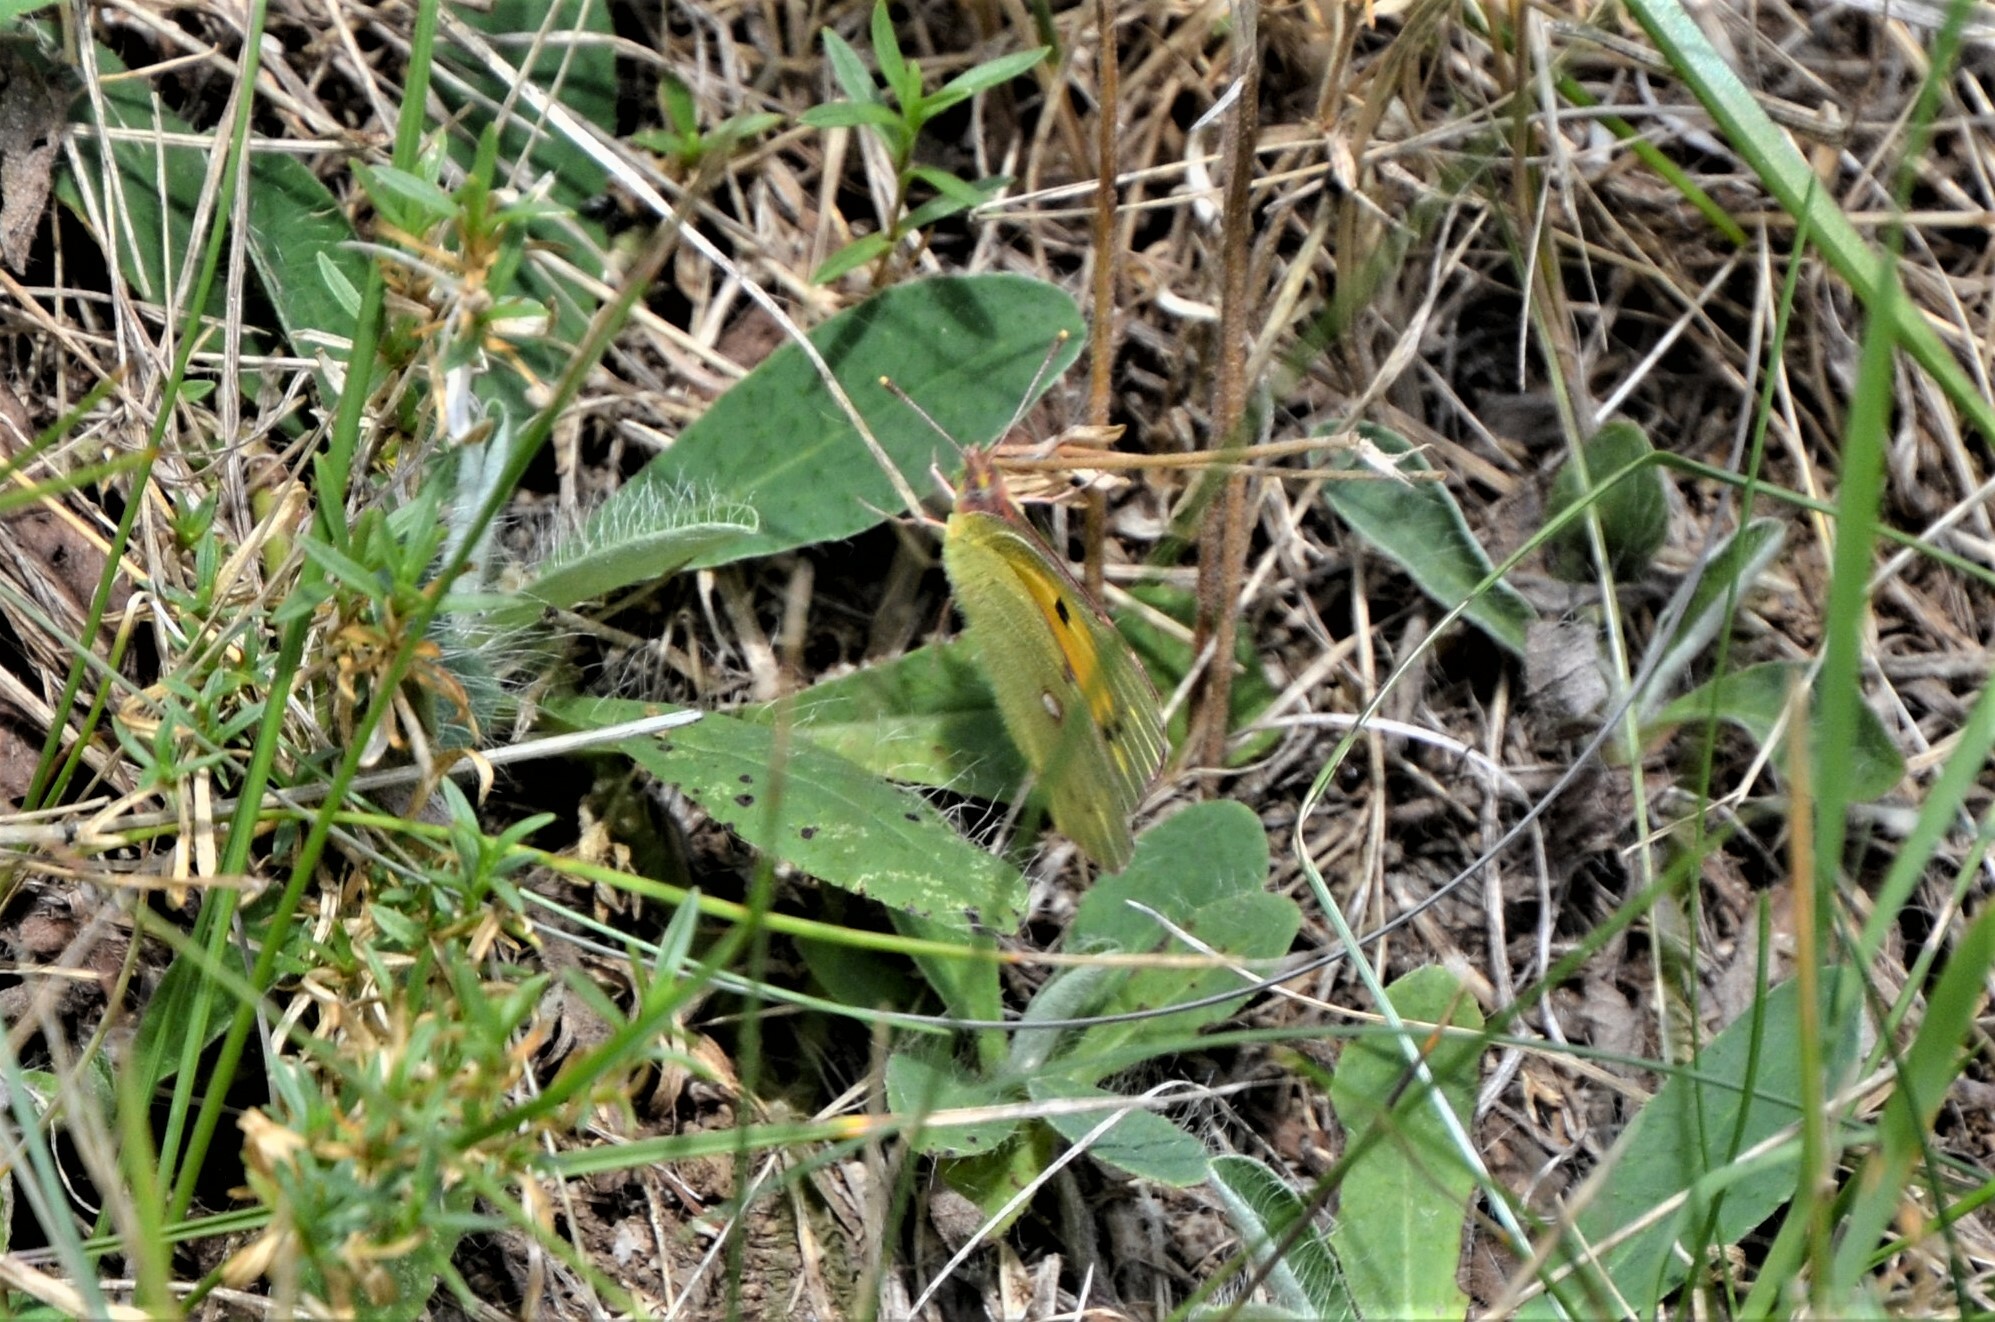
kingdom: Animalia
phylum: Arthropoda
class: Insecta
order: Lepidoptera
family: Pieridae
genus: Colias
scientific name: Colias croceus
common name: Clouded yellow
